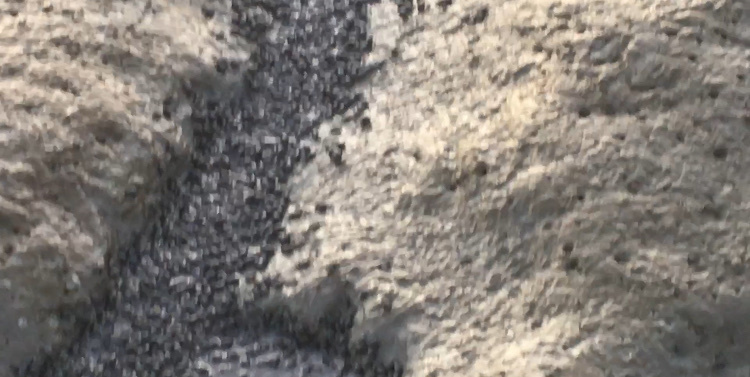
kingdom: Animalia
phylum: Mollusca
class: Gastropoda
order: Neogastropoda
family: Nassariidae
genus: Ilyanassa
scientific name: Ilyanassa obsoleta
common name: Eastern mudsnail
